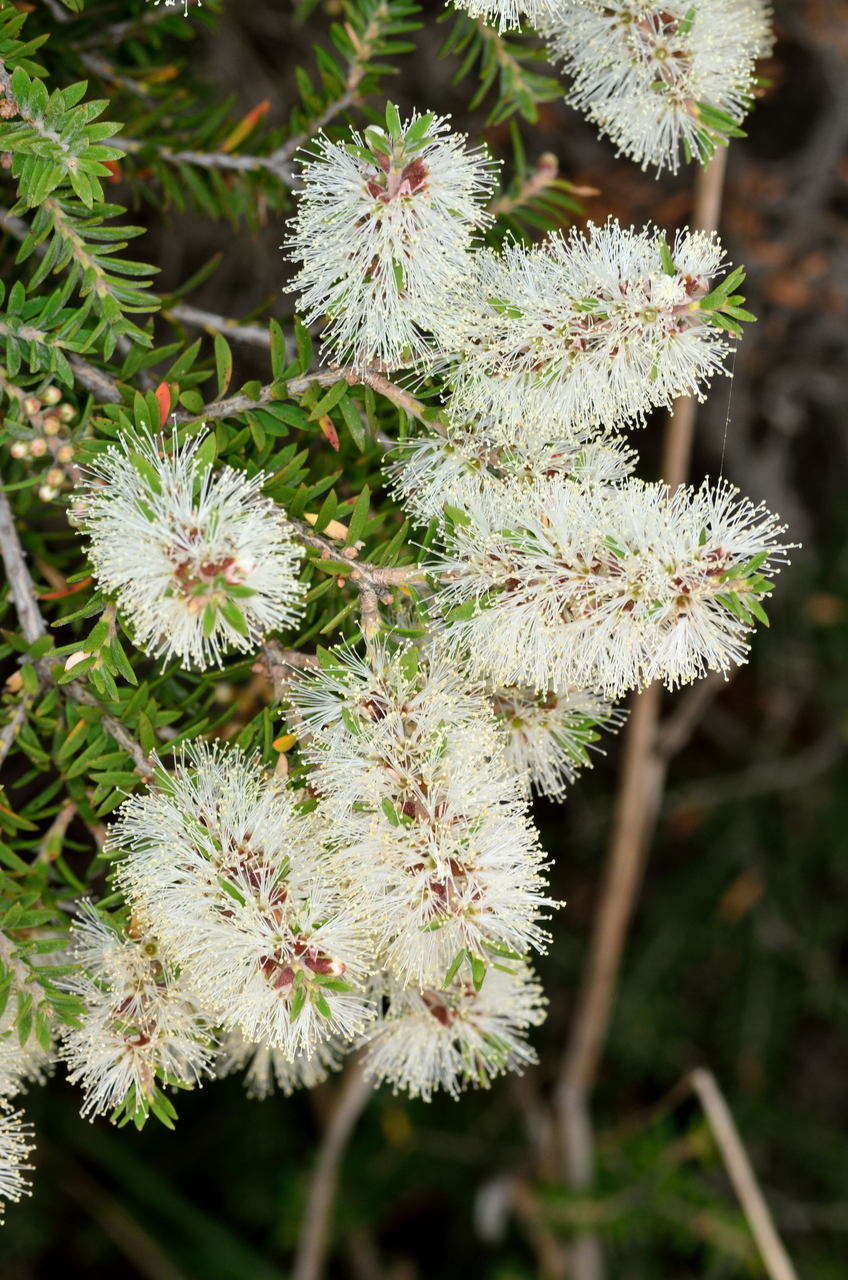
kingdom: Plantae
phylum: Tracheophyta
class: Magnoliopsida
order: Myrtales
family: Myrtaceae
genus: Melaleuca
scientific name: Melaleuca lanceolata
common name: Rottnest island teatree
